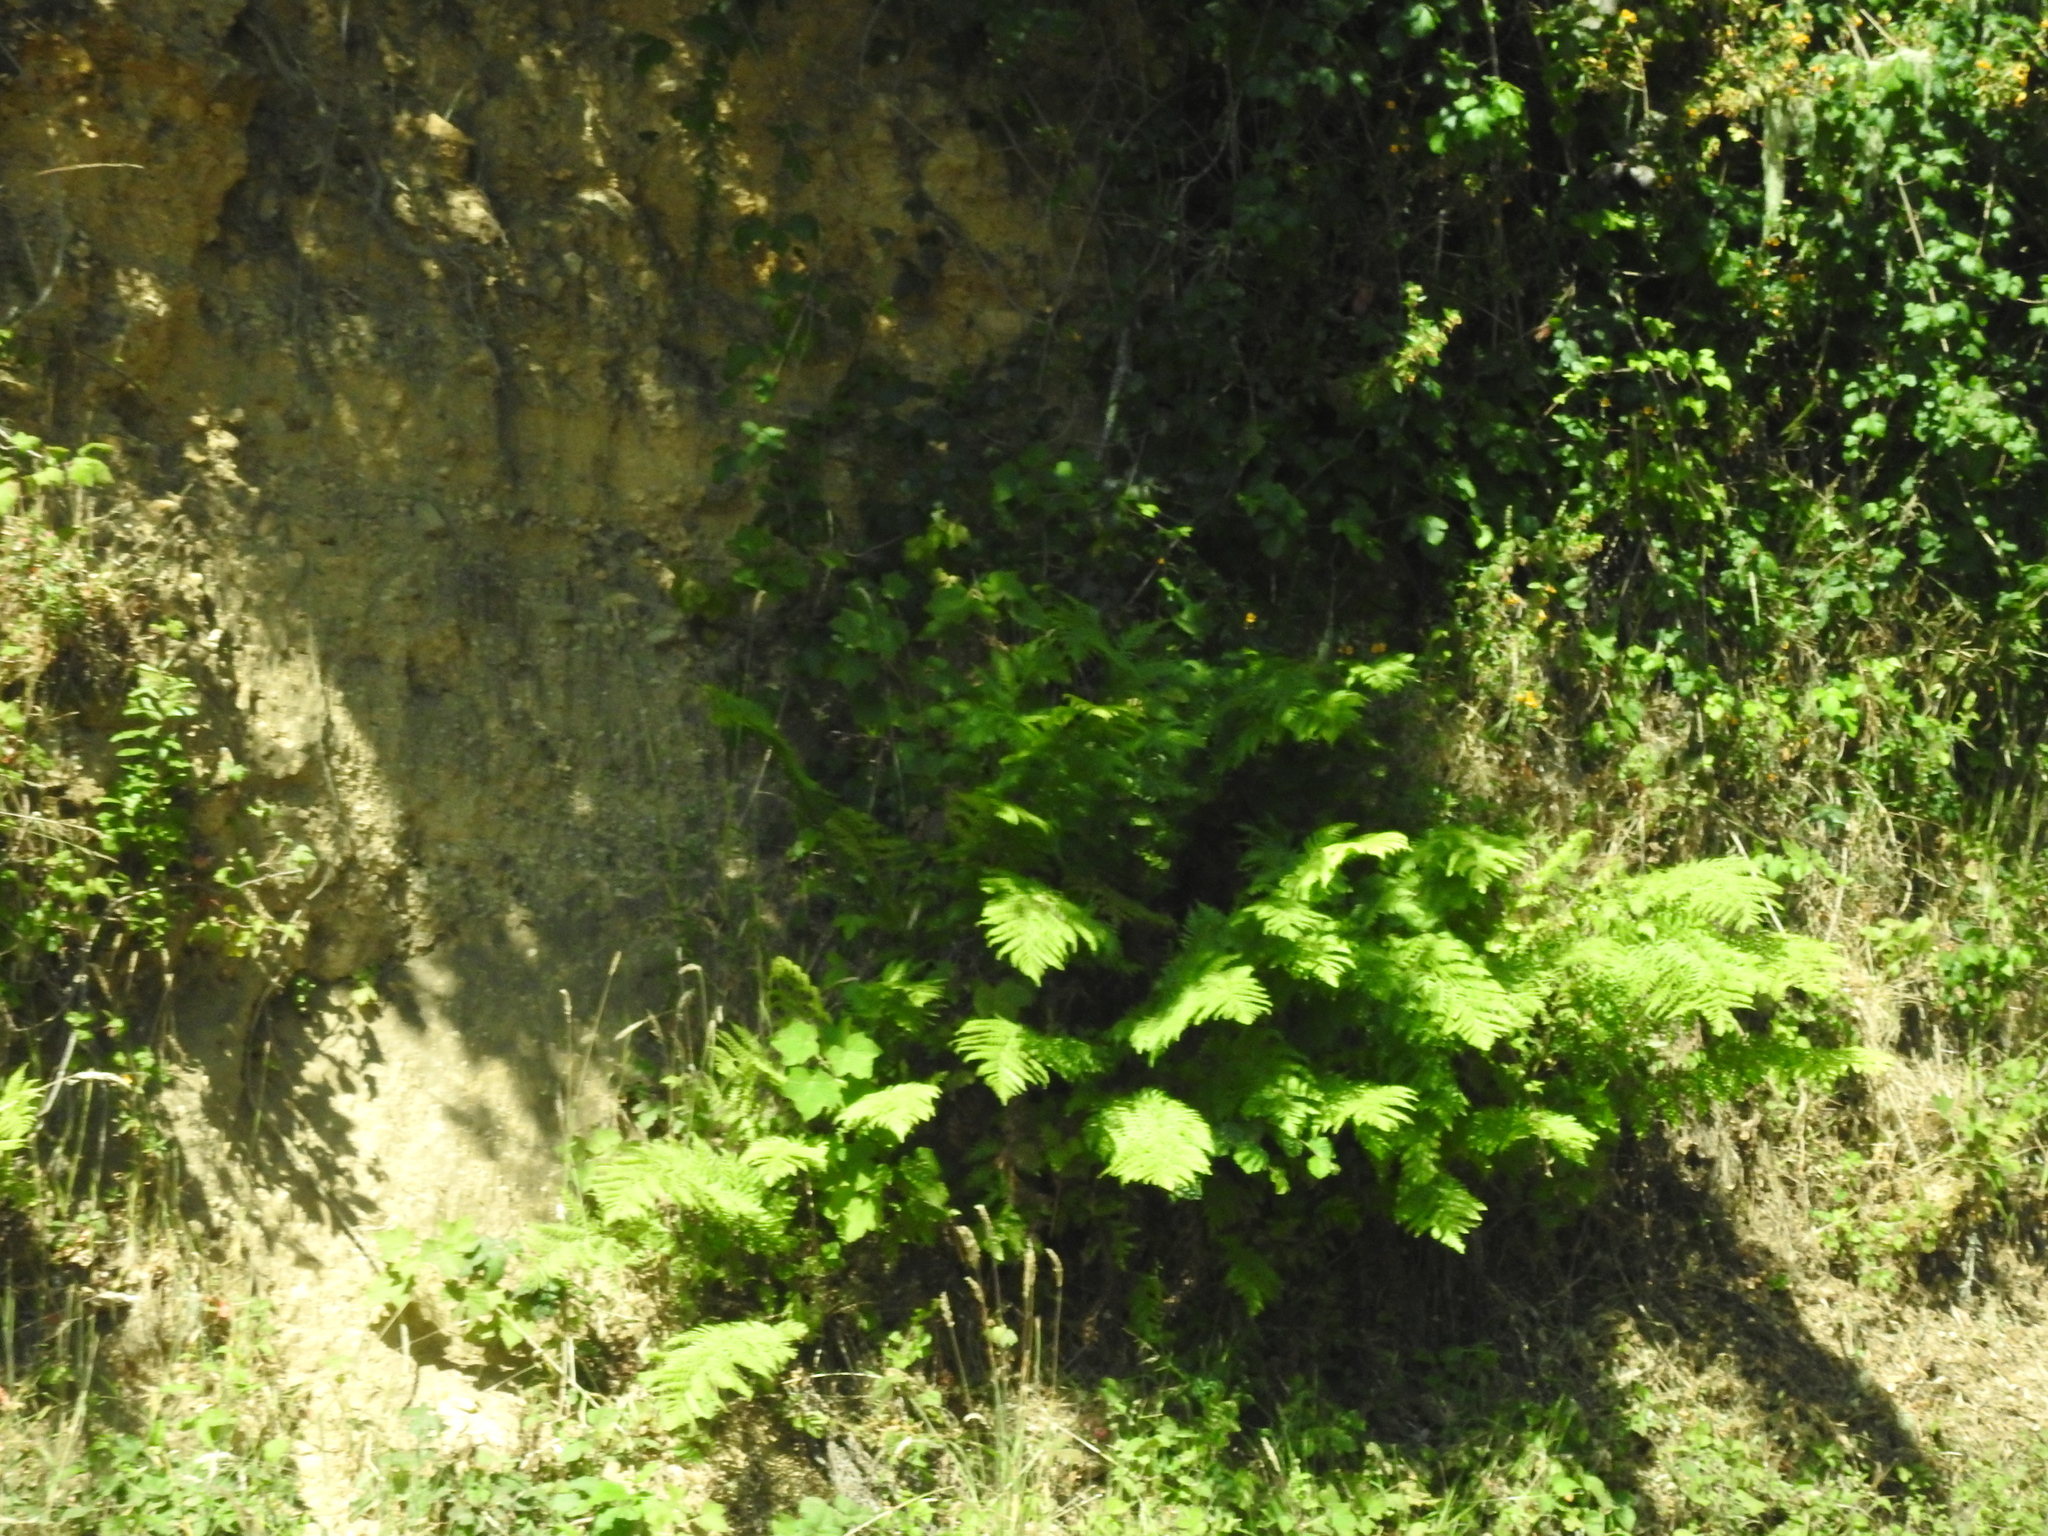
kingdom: Plantae
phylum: Tracheophyta
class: Polypodiopsida
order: Polypodiales
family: Blechnaceae
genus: Woodwardia
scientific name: Woodwardia fimbriata
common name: Giant chain fern
